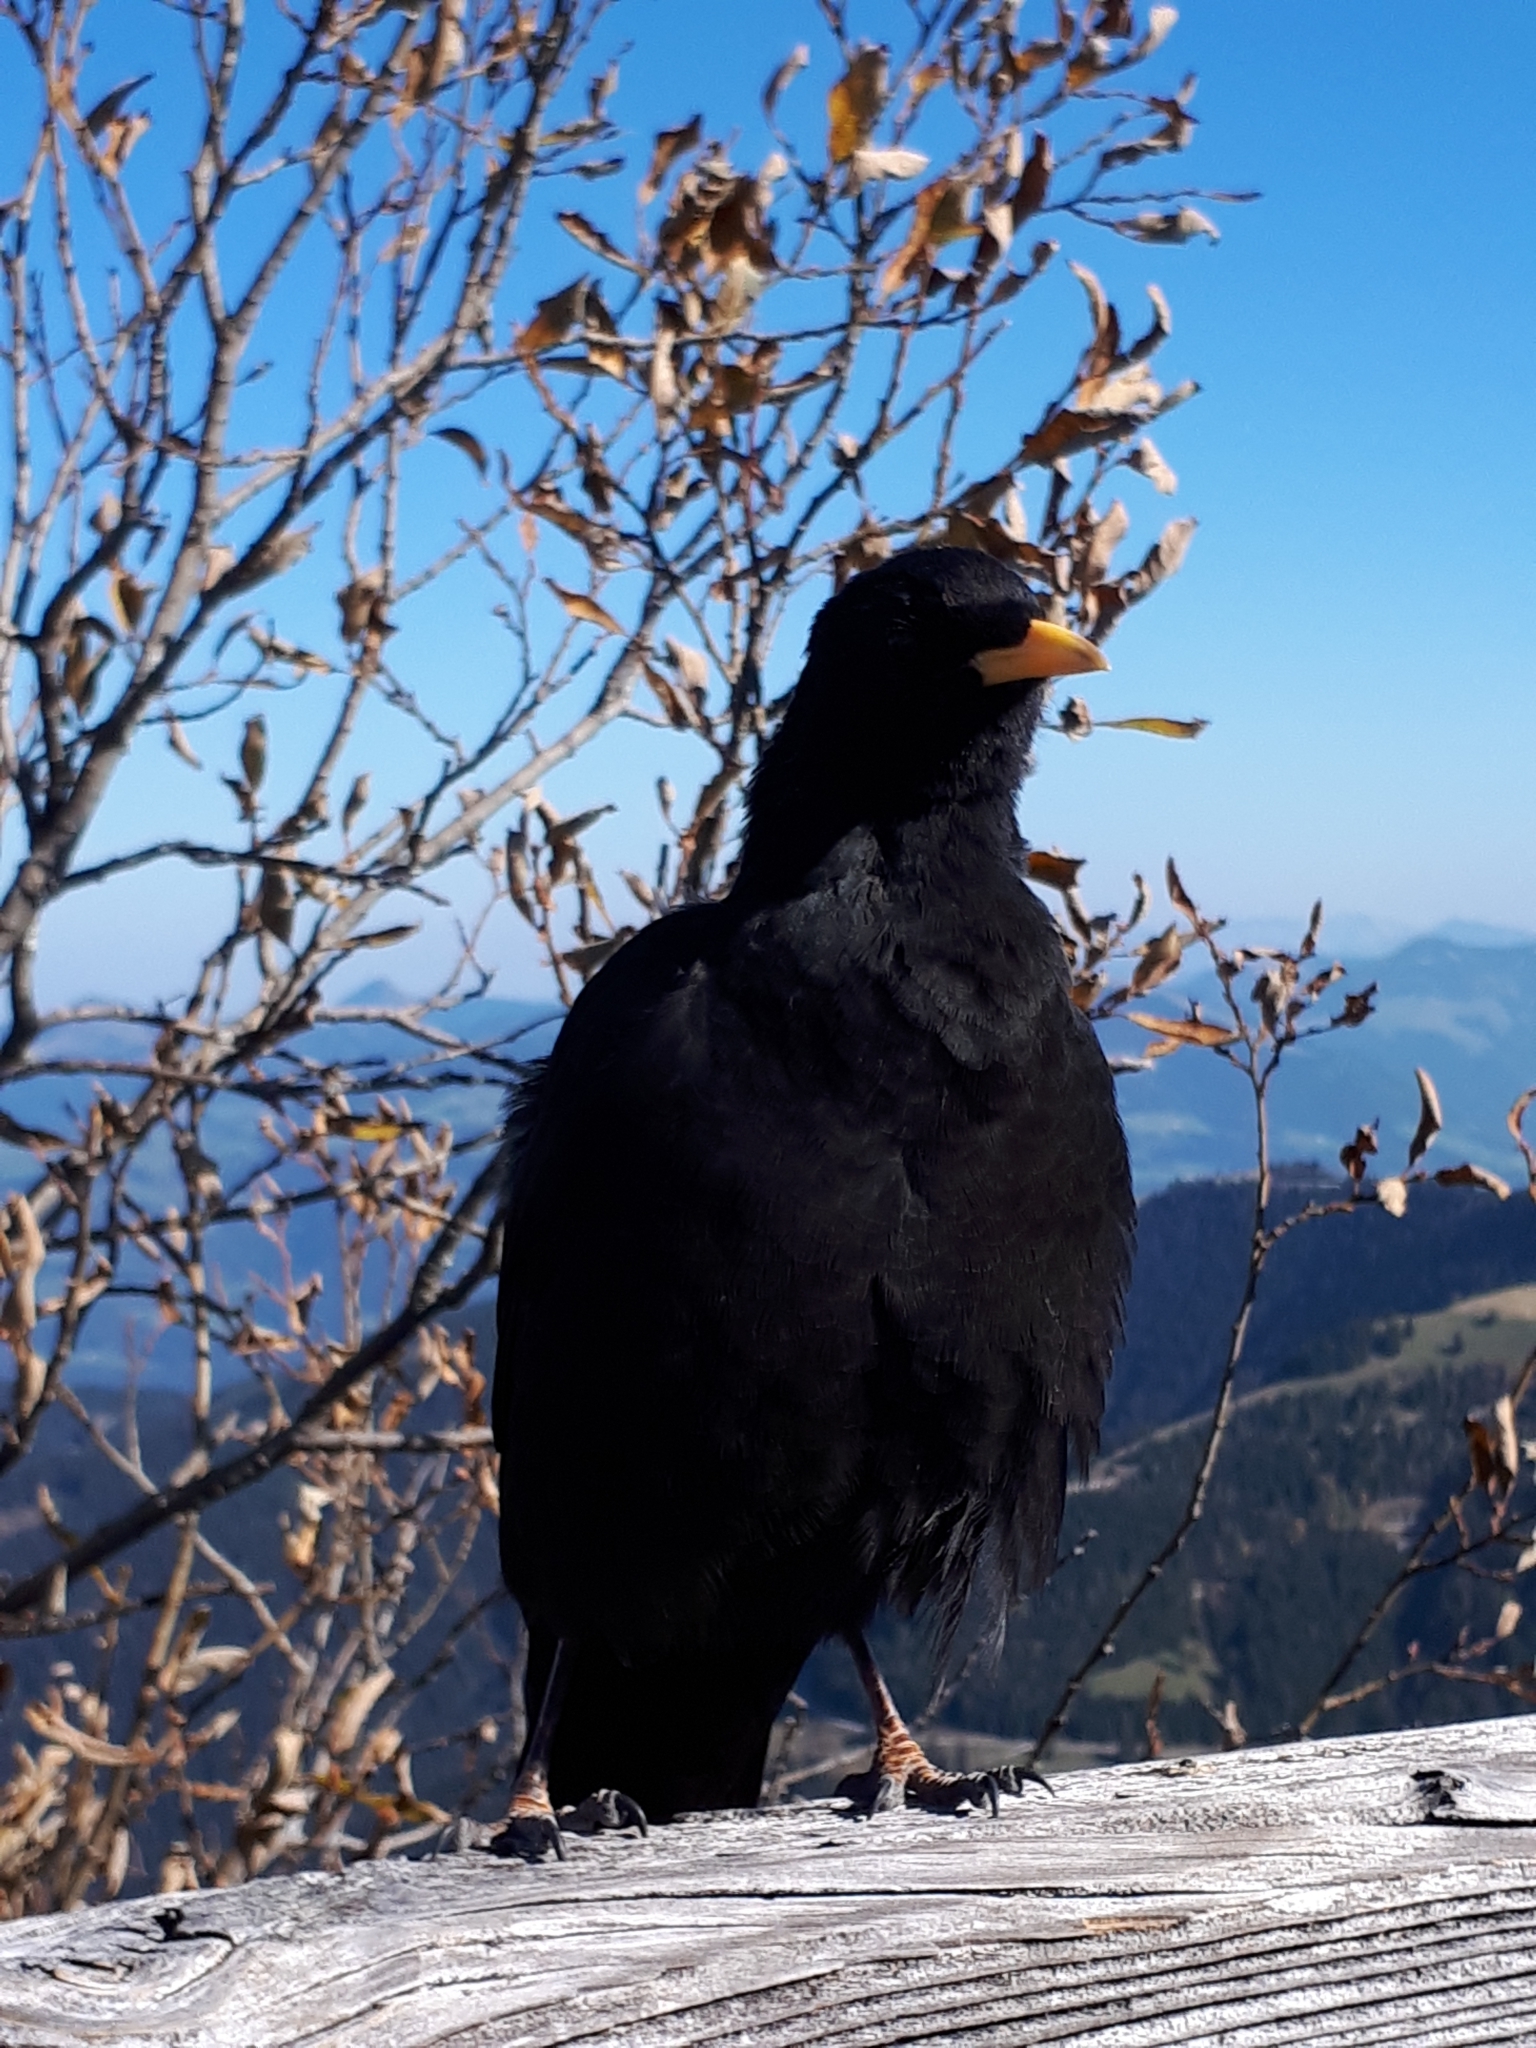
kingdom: Animalia
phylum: Chordata
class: Aves
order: Passeriformes
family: Corvidae
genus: Pyrrhocorax
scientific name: Pyrrhocorax graculus
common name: Alpine chough
